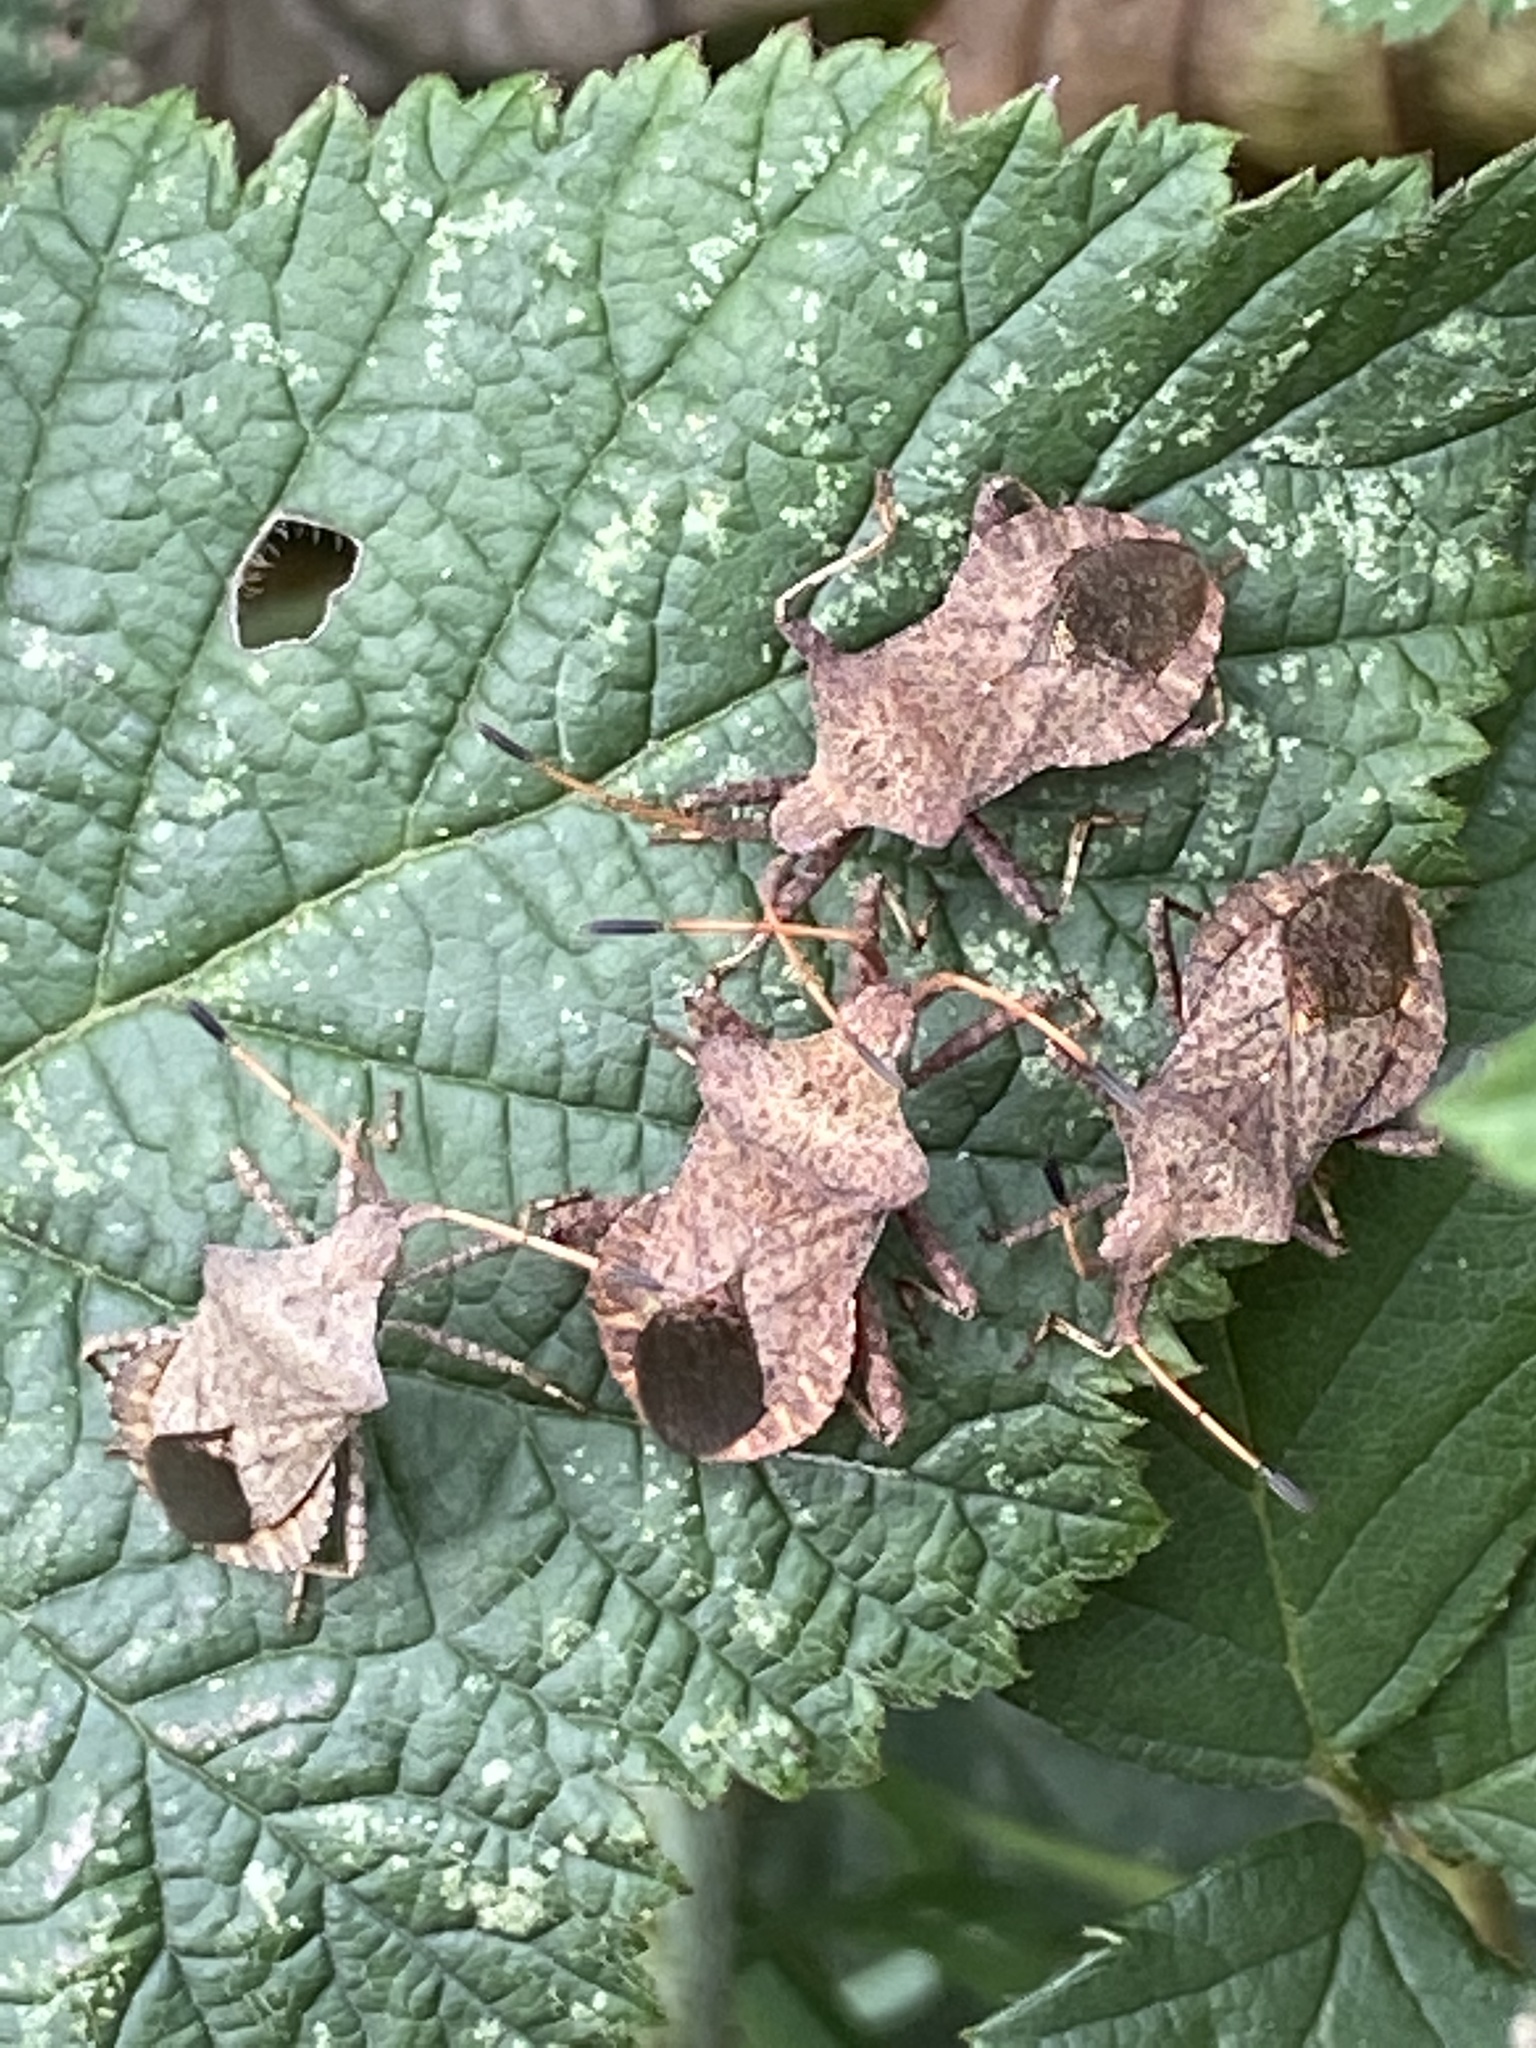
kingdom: Animalia
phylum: Arthropoda
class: Insecta
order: Hemiptera
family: Coreidae
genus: Coreus
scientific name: Coreus marginatus
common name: Dock bug
